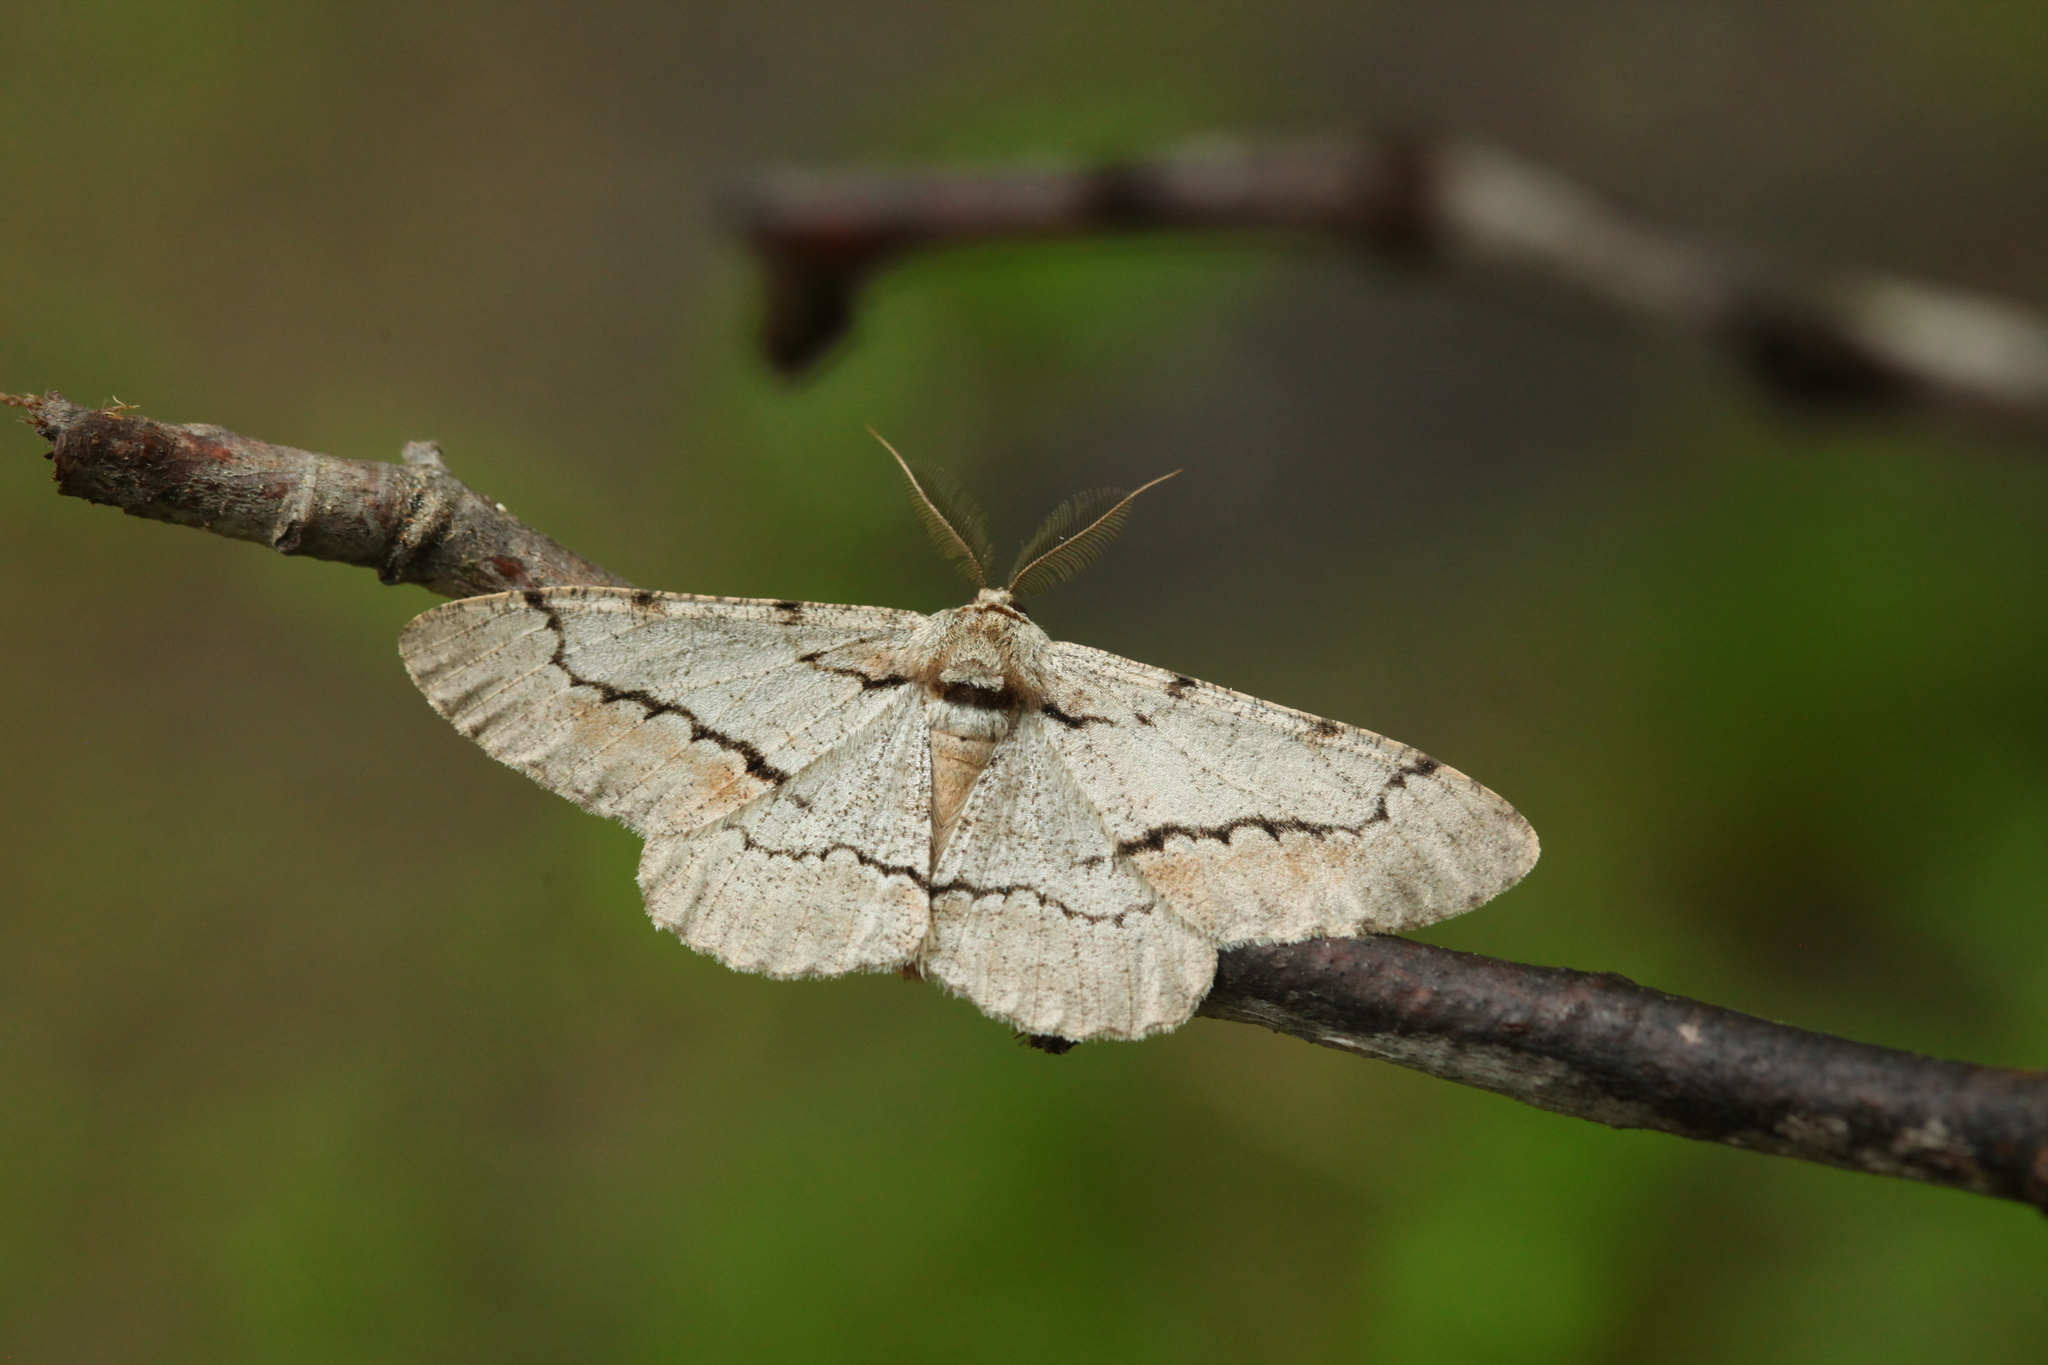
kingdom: Animalia
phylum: Arthropoda
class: Insecta
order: Lepidoptera
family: Geometridae
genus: Phthonosema
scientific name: Phthonosema tendinosaria
